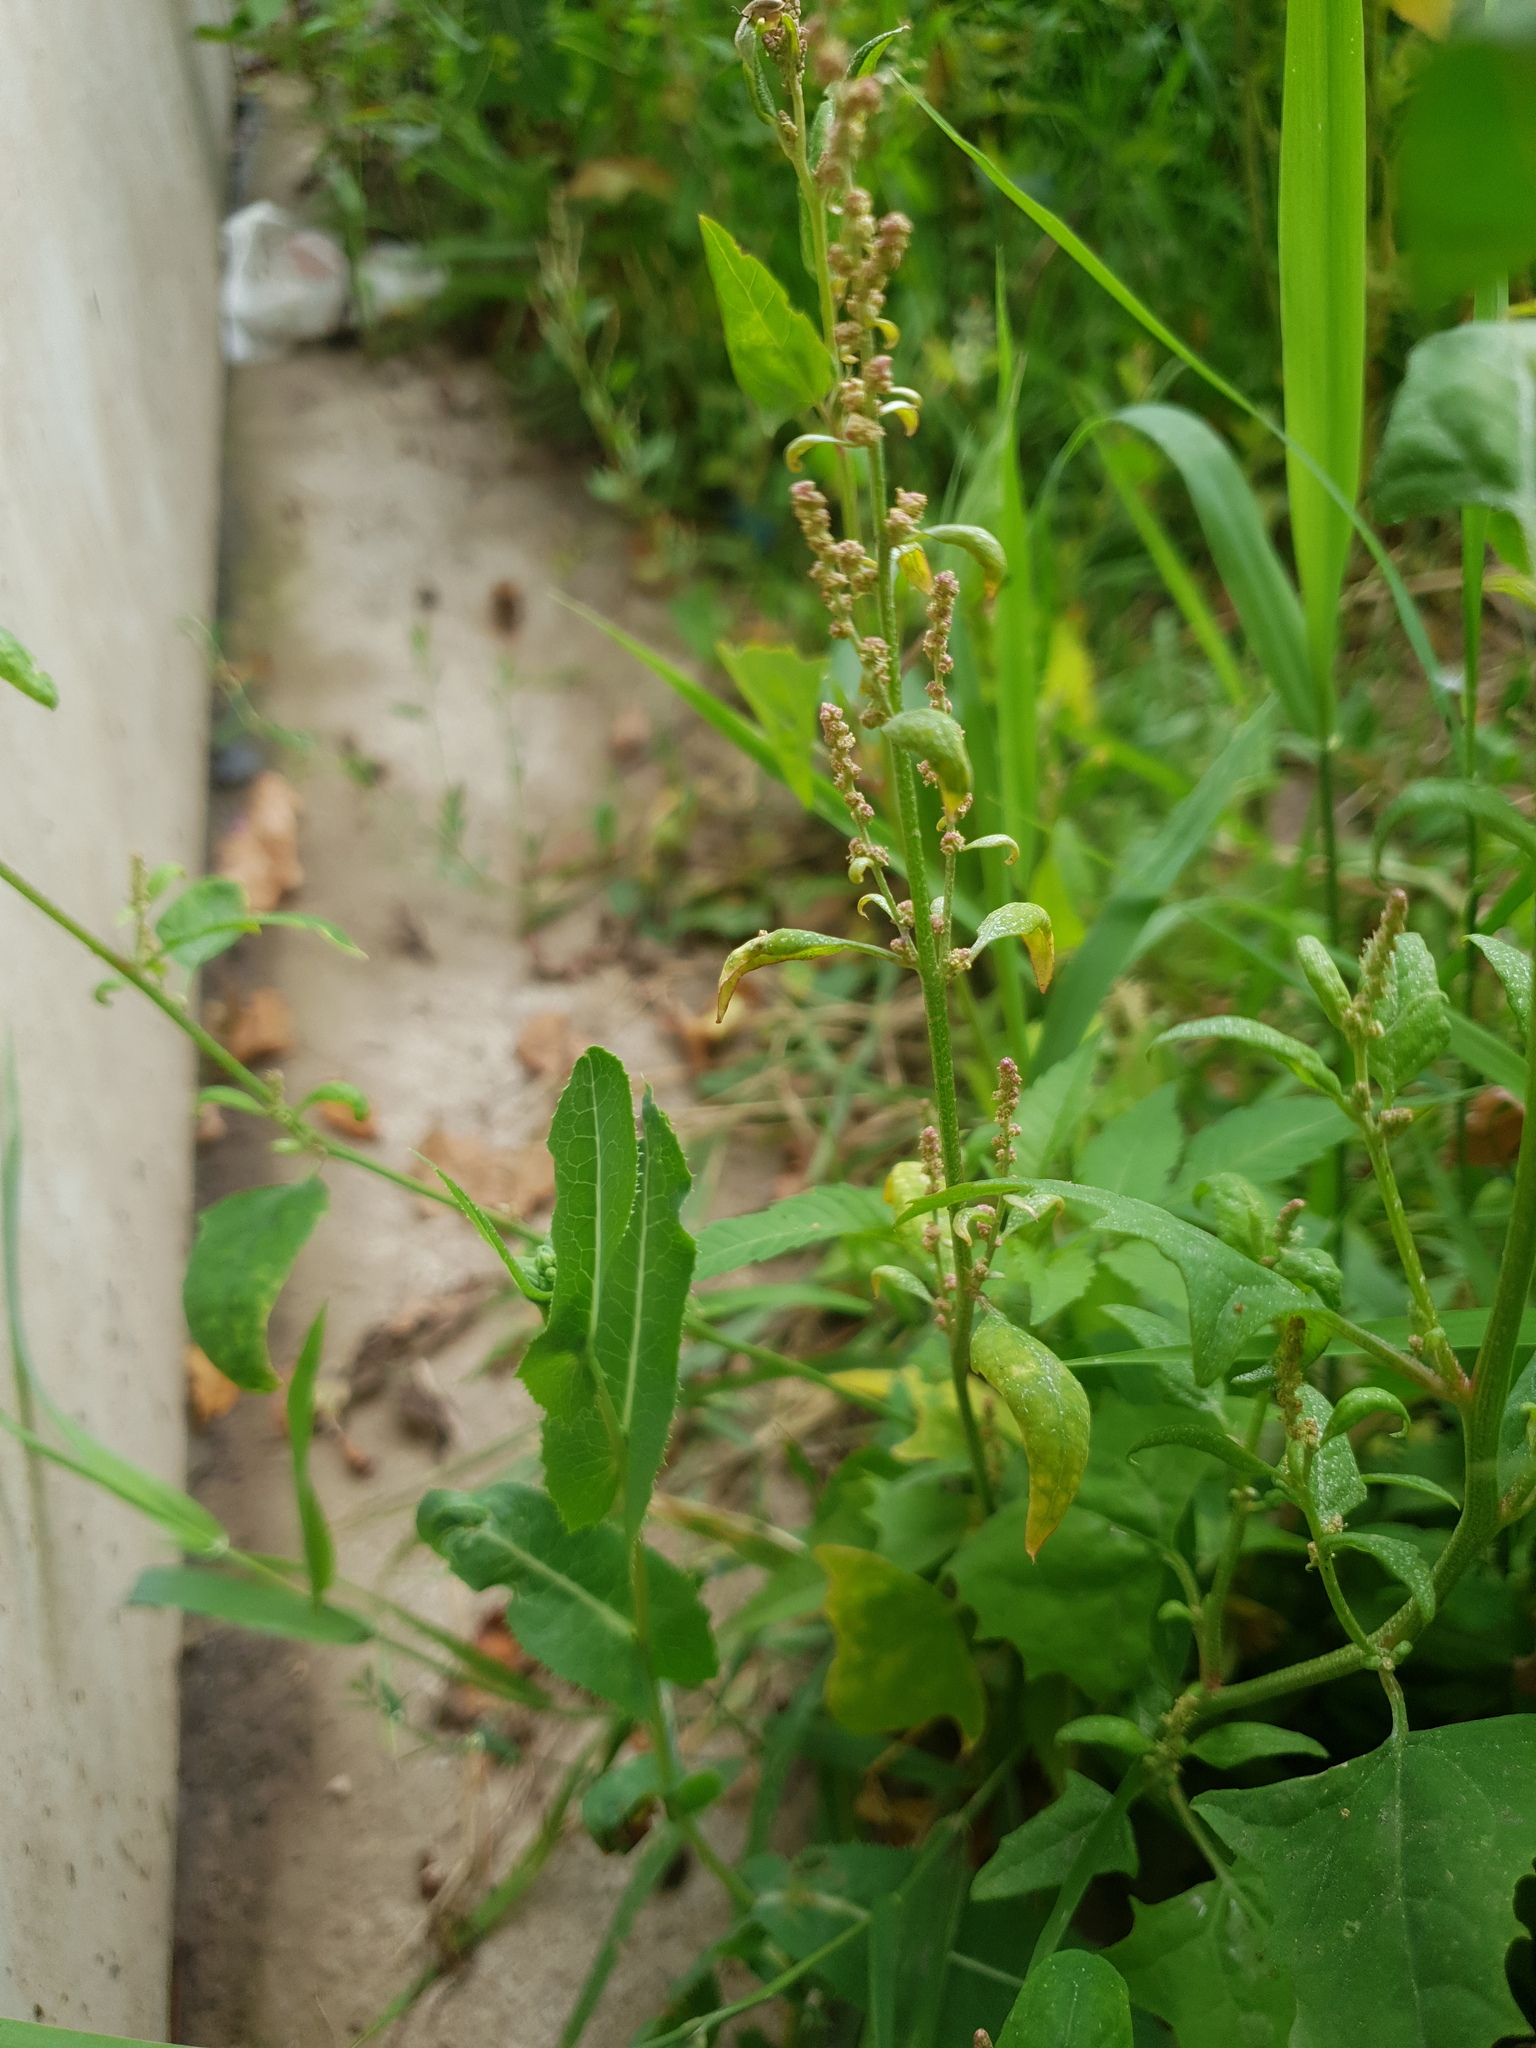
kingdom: Plantae
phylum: Tracheophyta
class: Magnoliopsida
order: Caryophyllales
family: Amaranthaceae
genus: Atriplex
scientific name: Atriplex patula
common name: Common orache
